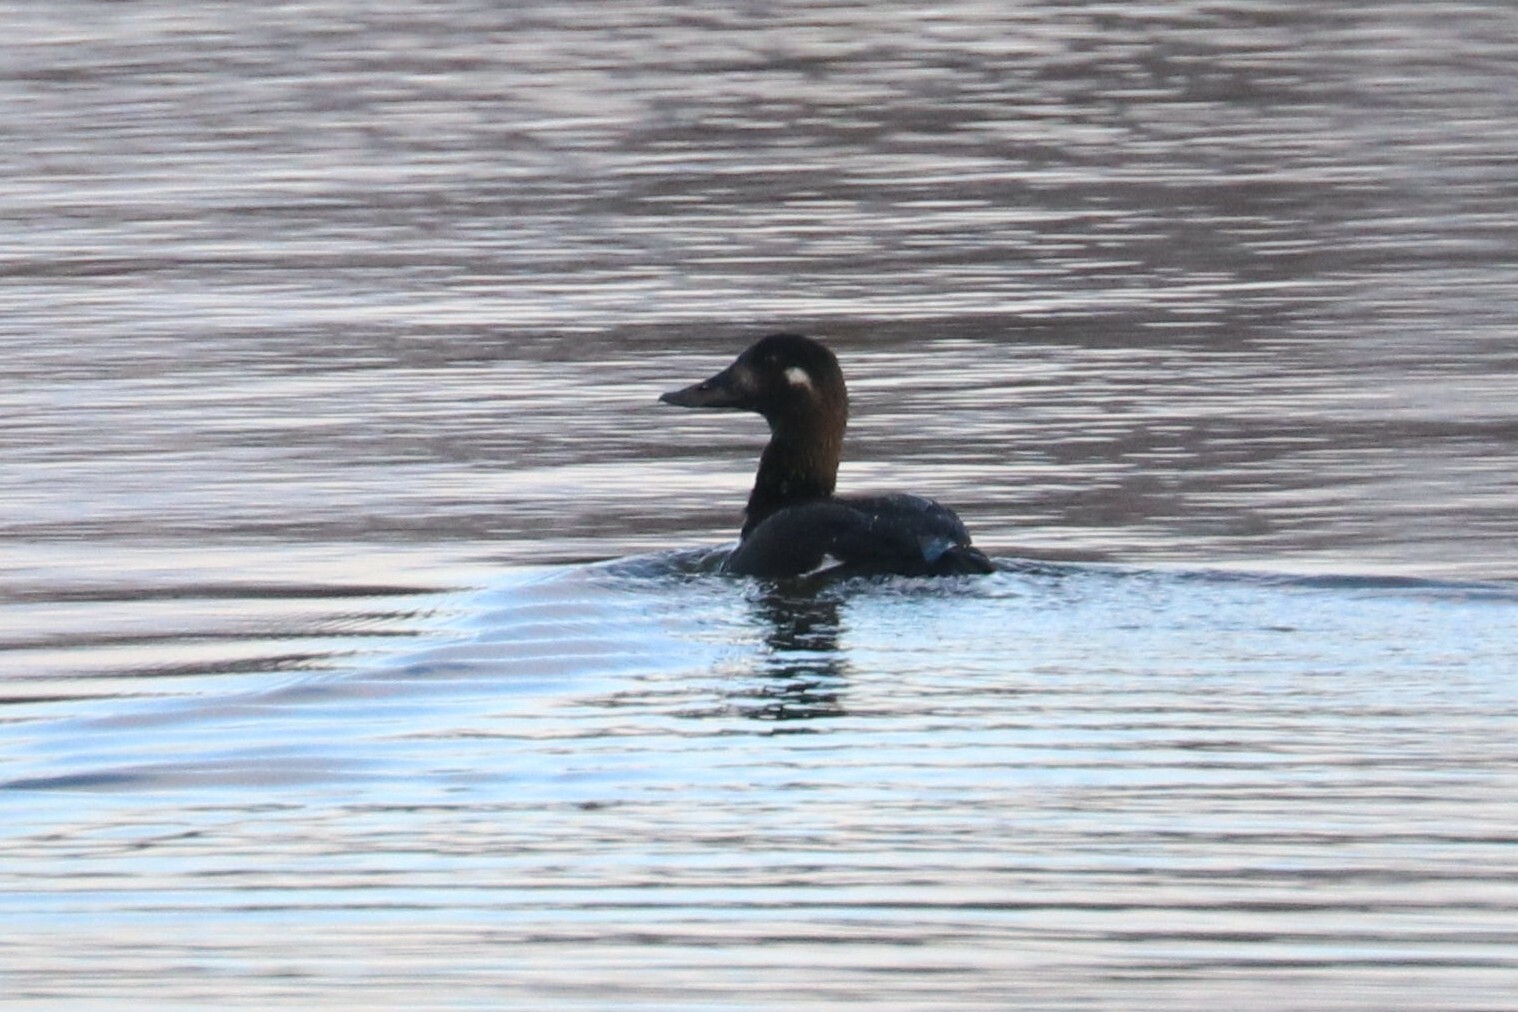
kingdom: Animalia
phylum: Chordata
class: Aves
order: Anseriformes
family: Anatidae
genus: Melanitta
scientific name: Melanitta fusca
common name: Velvet scoter
